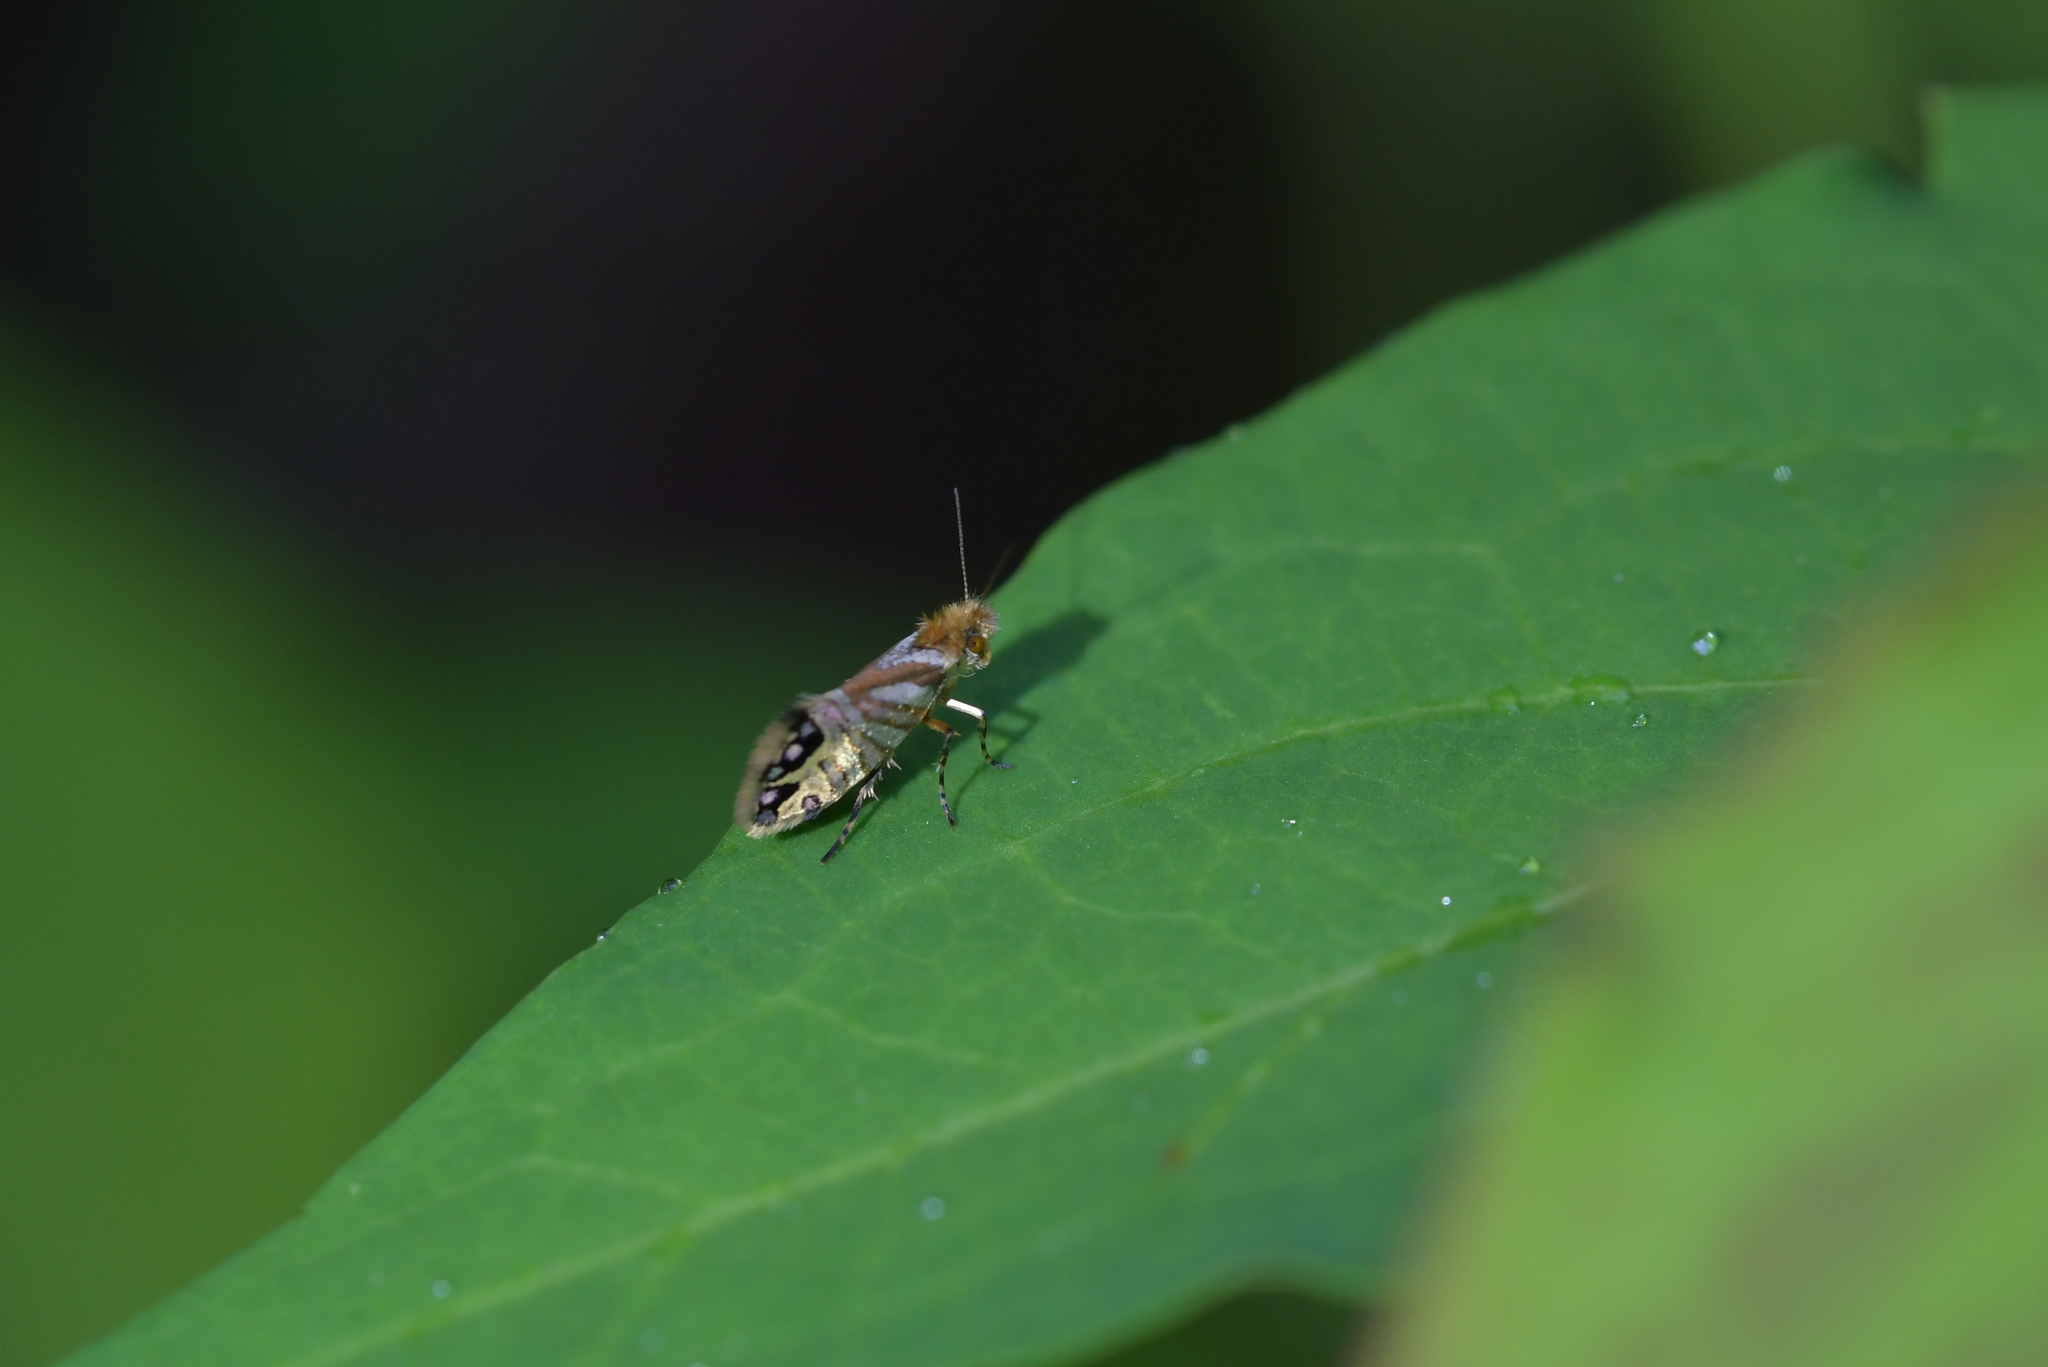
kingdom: Animalia
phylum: Arthropoda
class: Insecta
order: Lepidoptera
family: Micropterigidae
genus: Sabatinca
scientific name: Sabatinca doroxena
